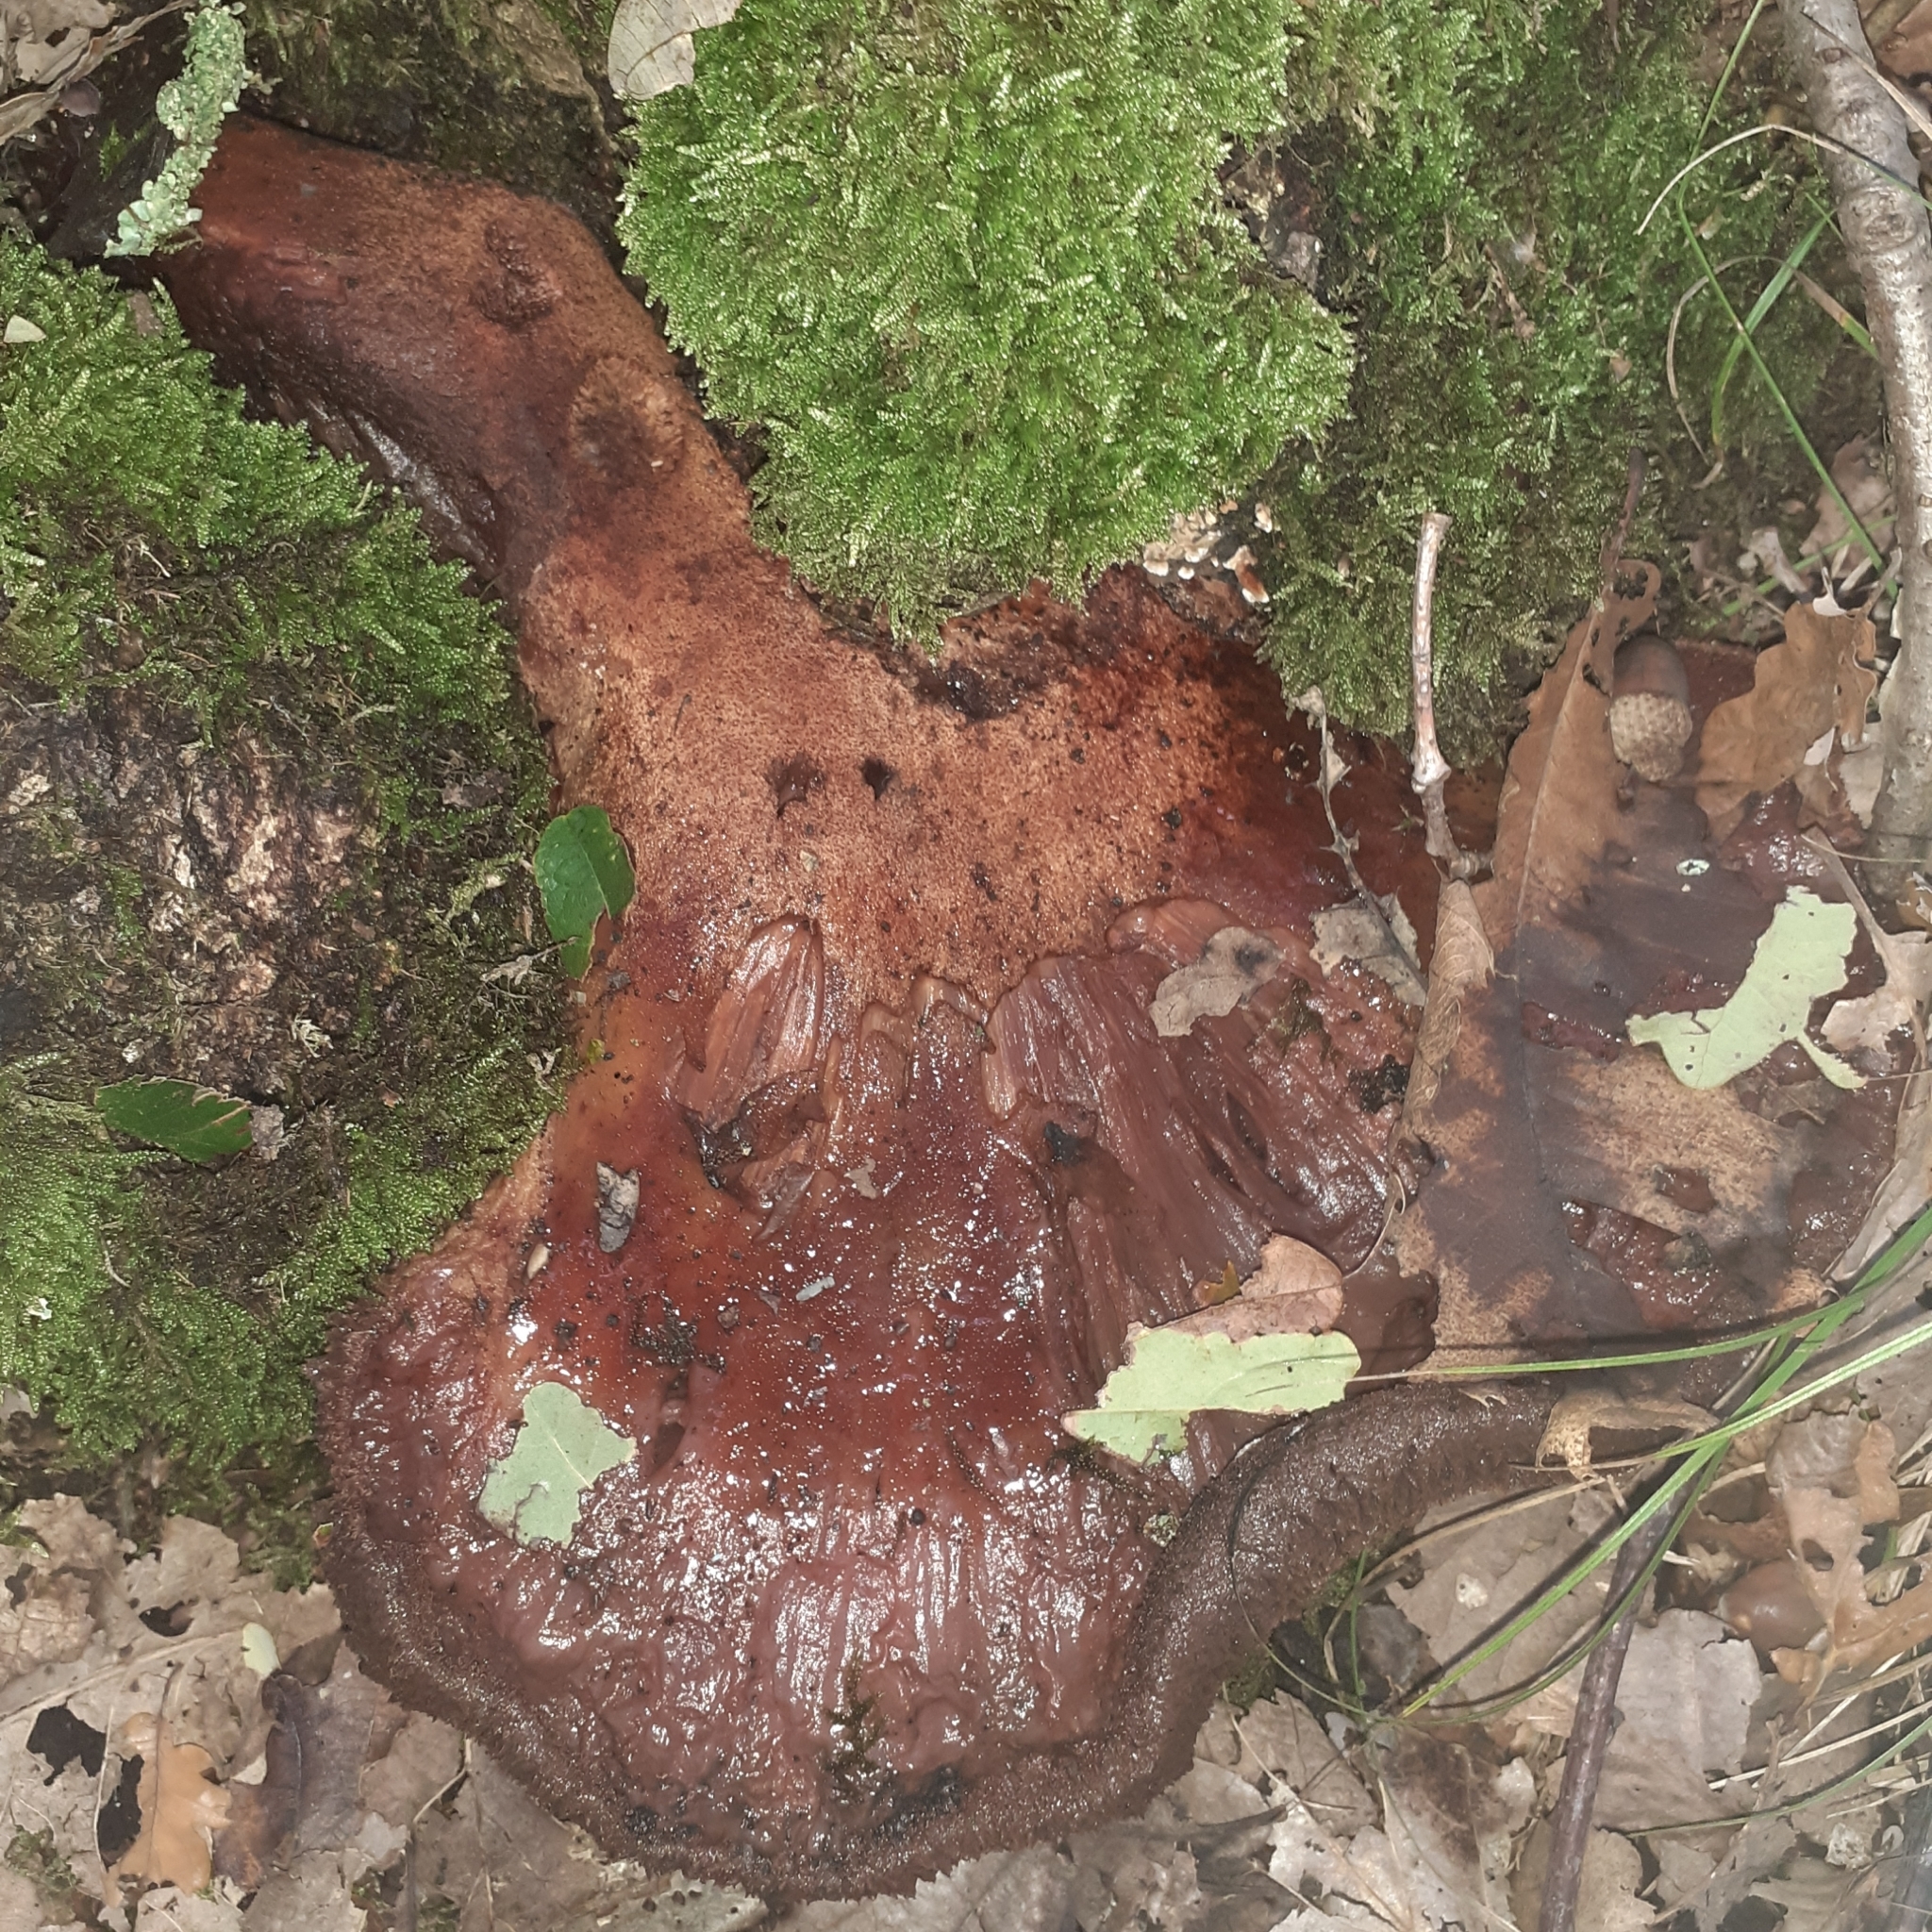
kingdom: Fungi
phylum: Basidiomycota
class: Agaricomycetes
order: Agaricales
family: Fistulinaceae
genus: Fistulina
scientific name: Fistulina hepatica
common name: Beef-steak fungus
